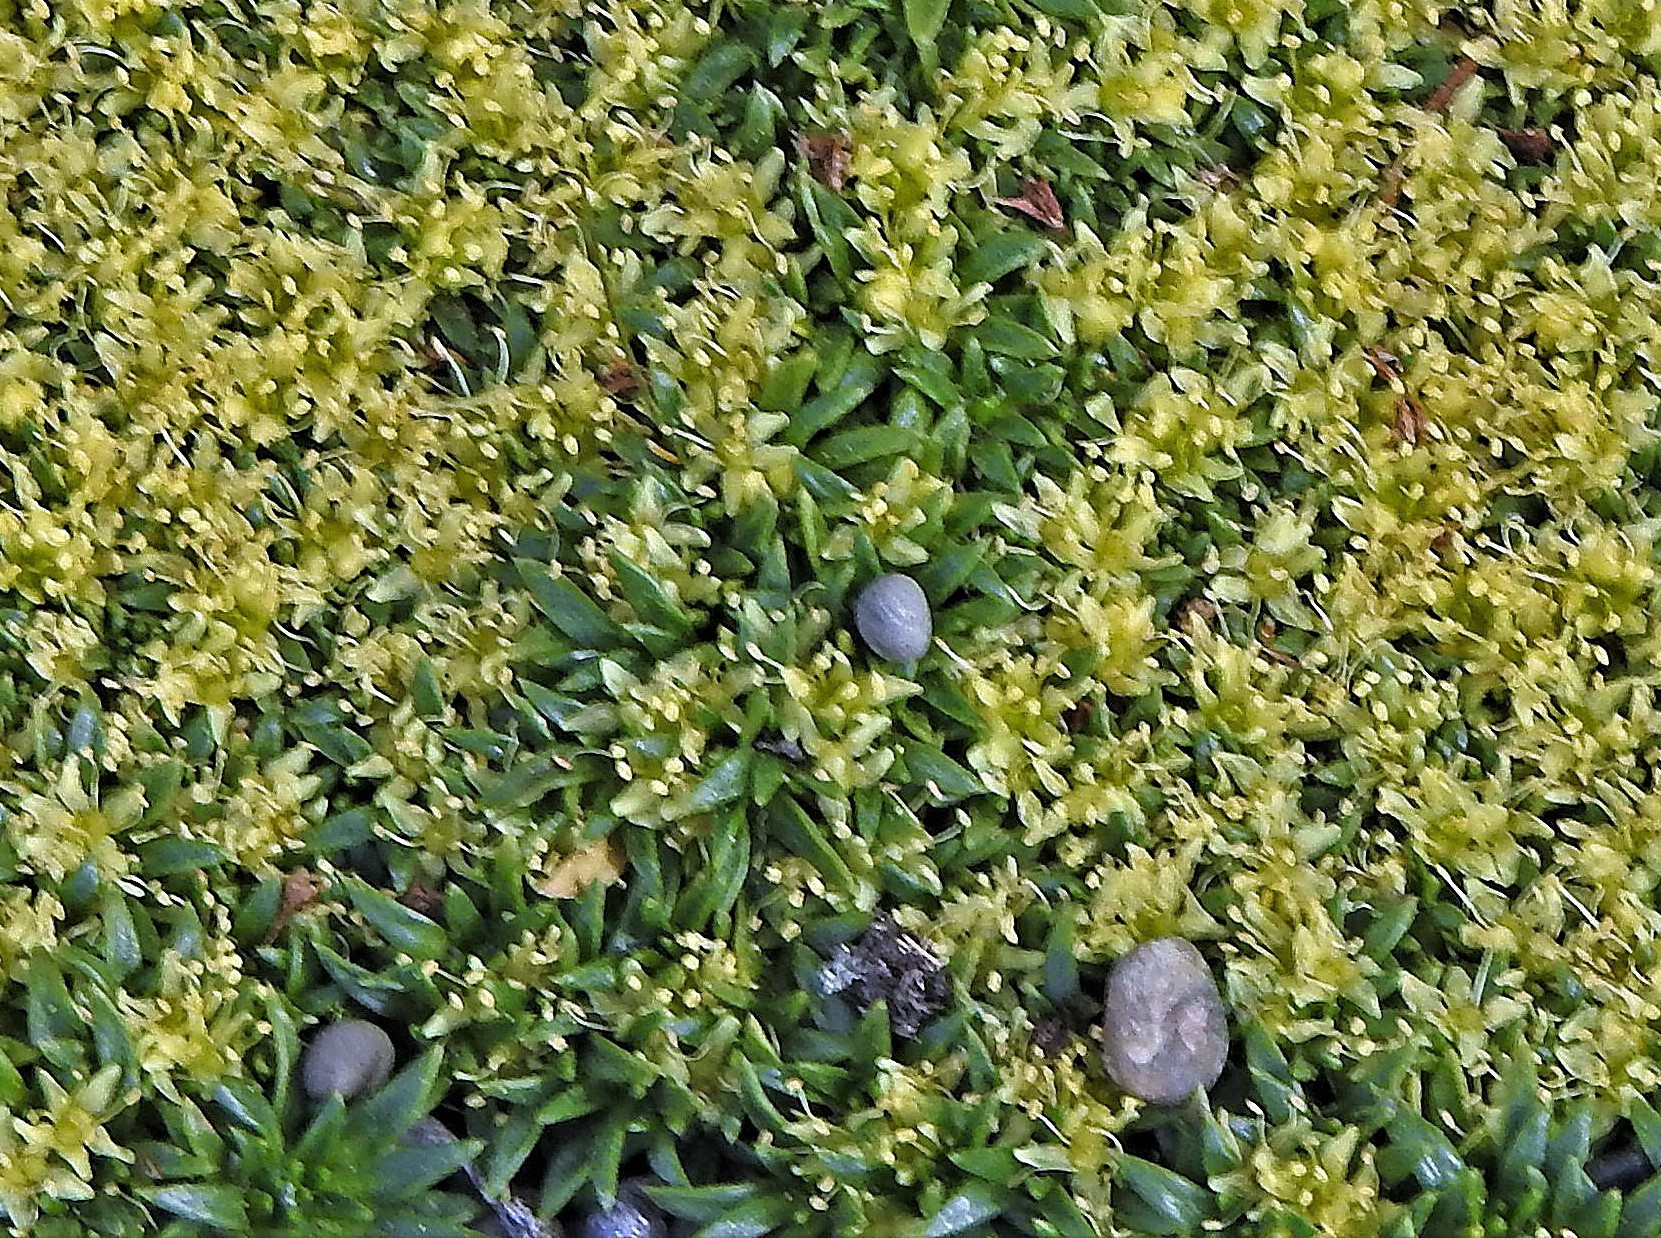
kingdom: Plantae
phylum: Tracheophyta
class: Magnoliopsida
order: Apiales
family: Apiaceae
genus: Azorella
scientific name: Azorella monantha
